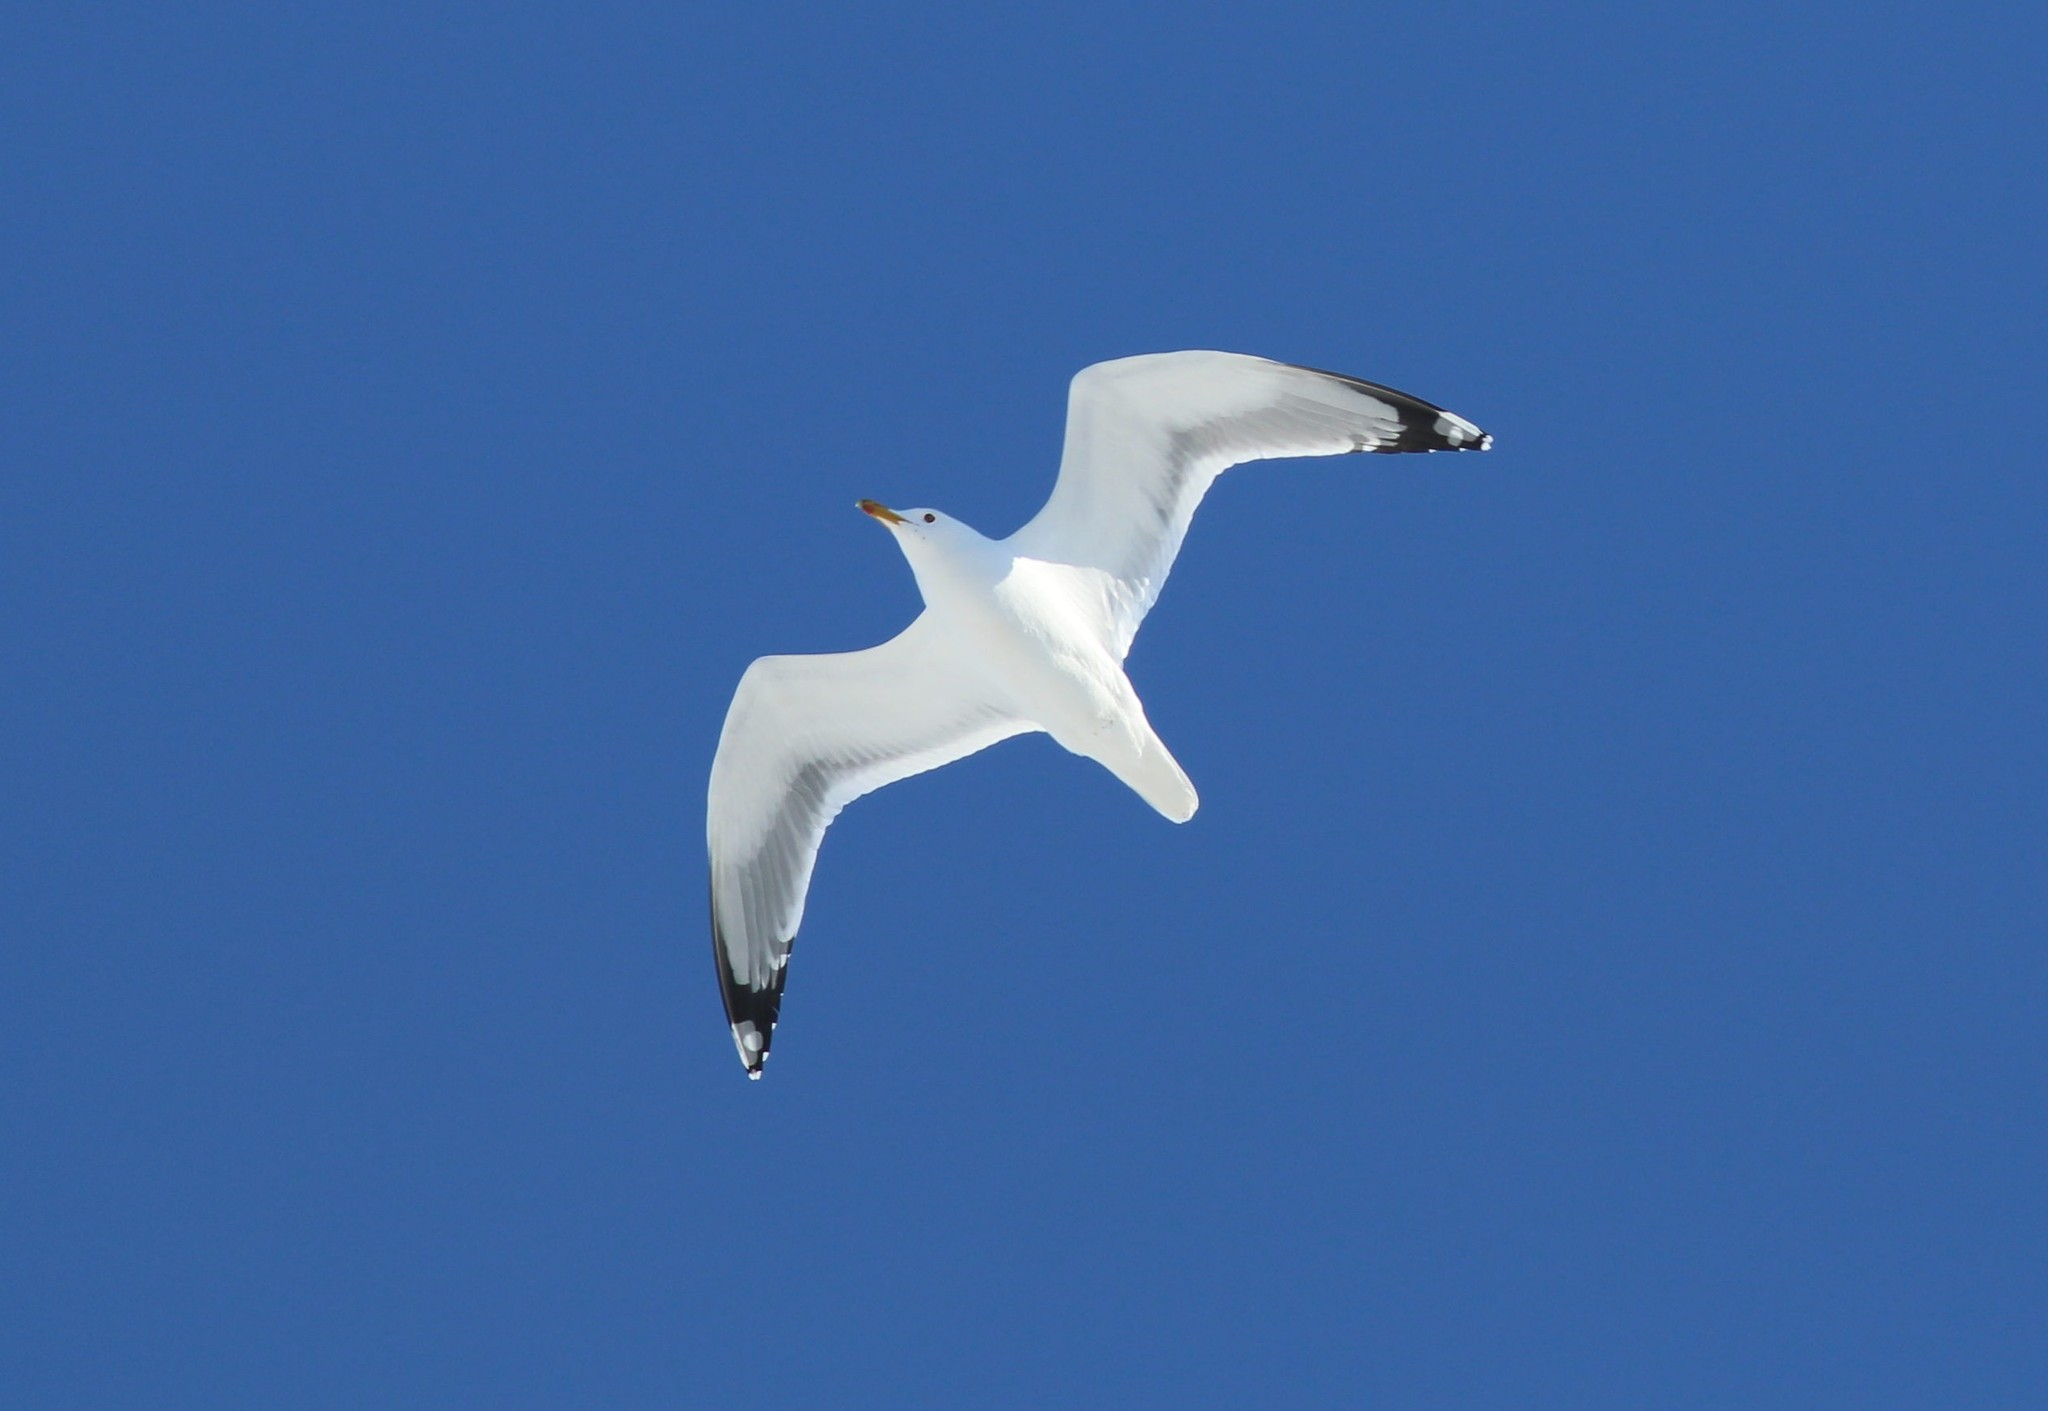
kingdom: Animalia
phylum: Chordata
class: Aves
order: Charadriiformes
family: Laridae
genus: Larus
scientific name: Larus cachinnans
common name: Caspian gull
